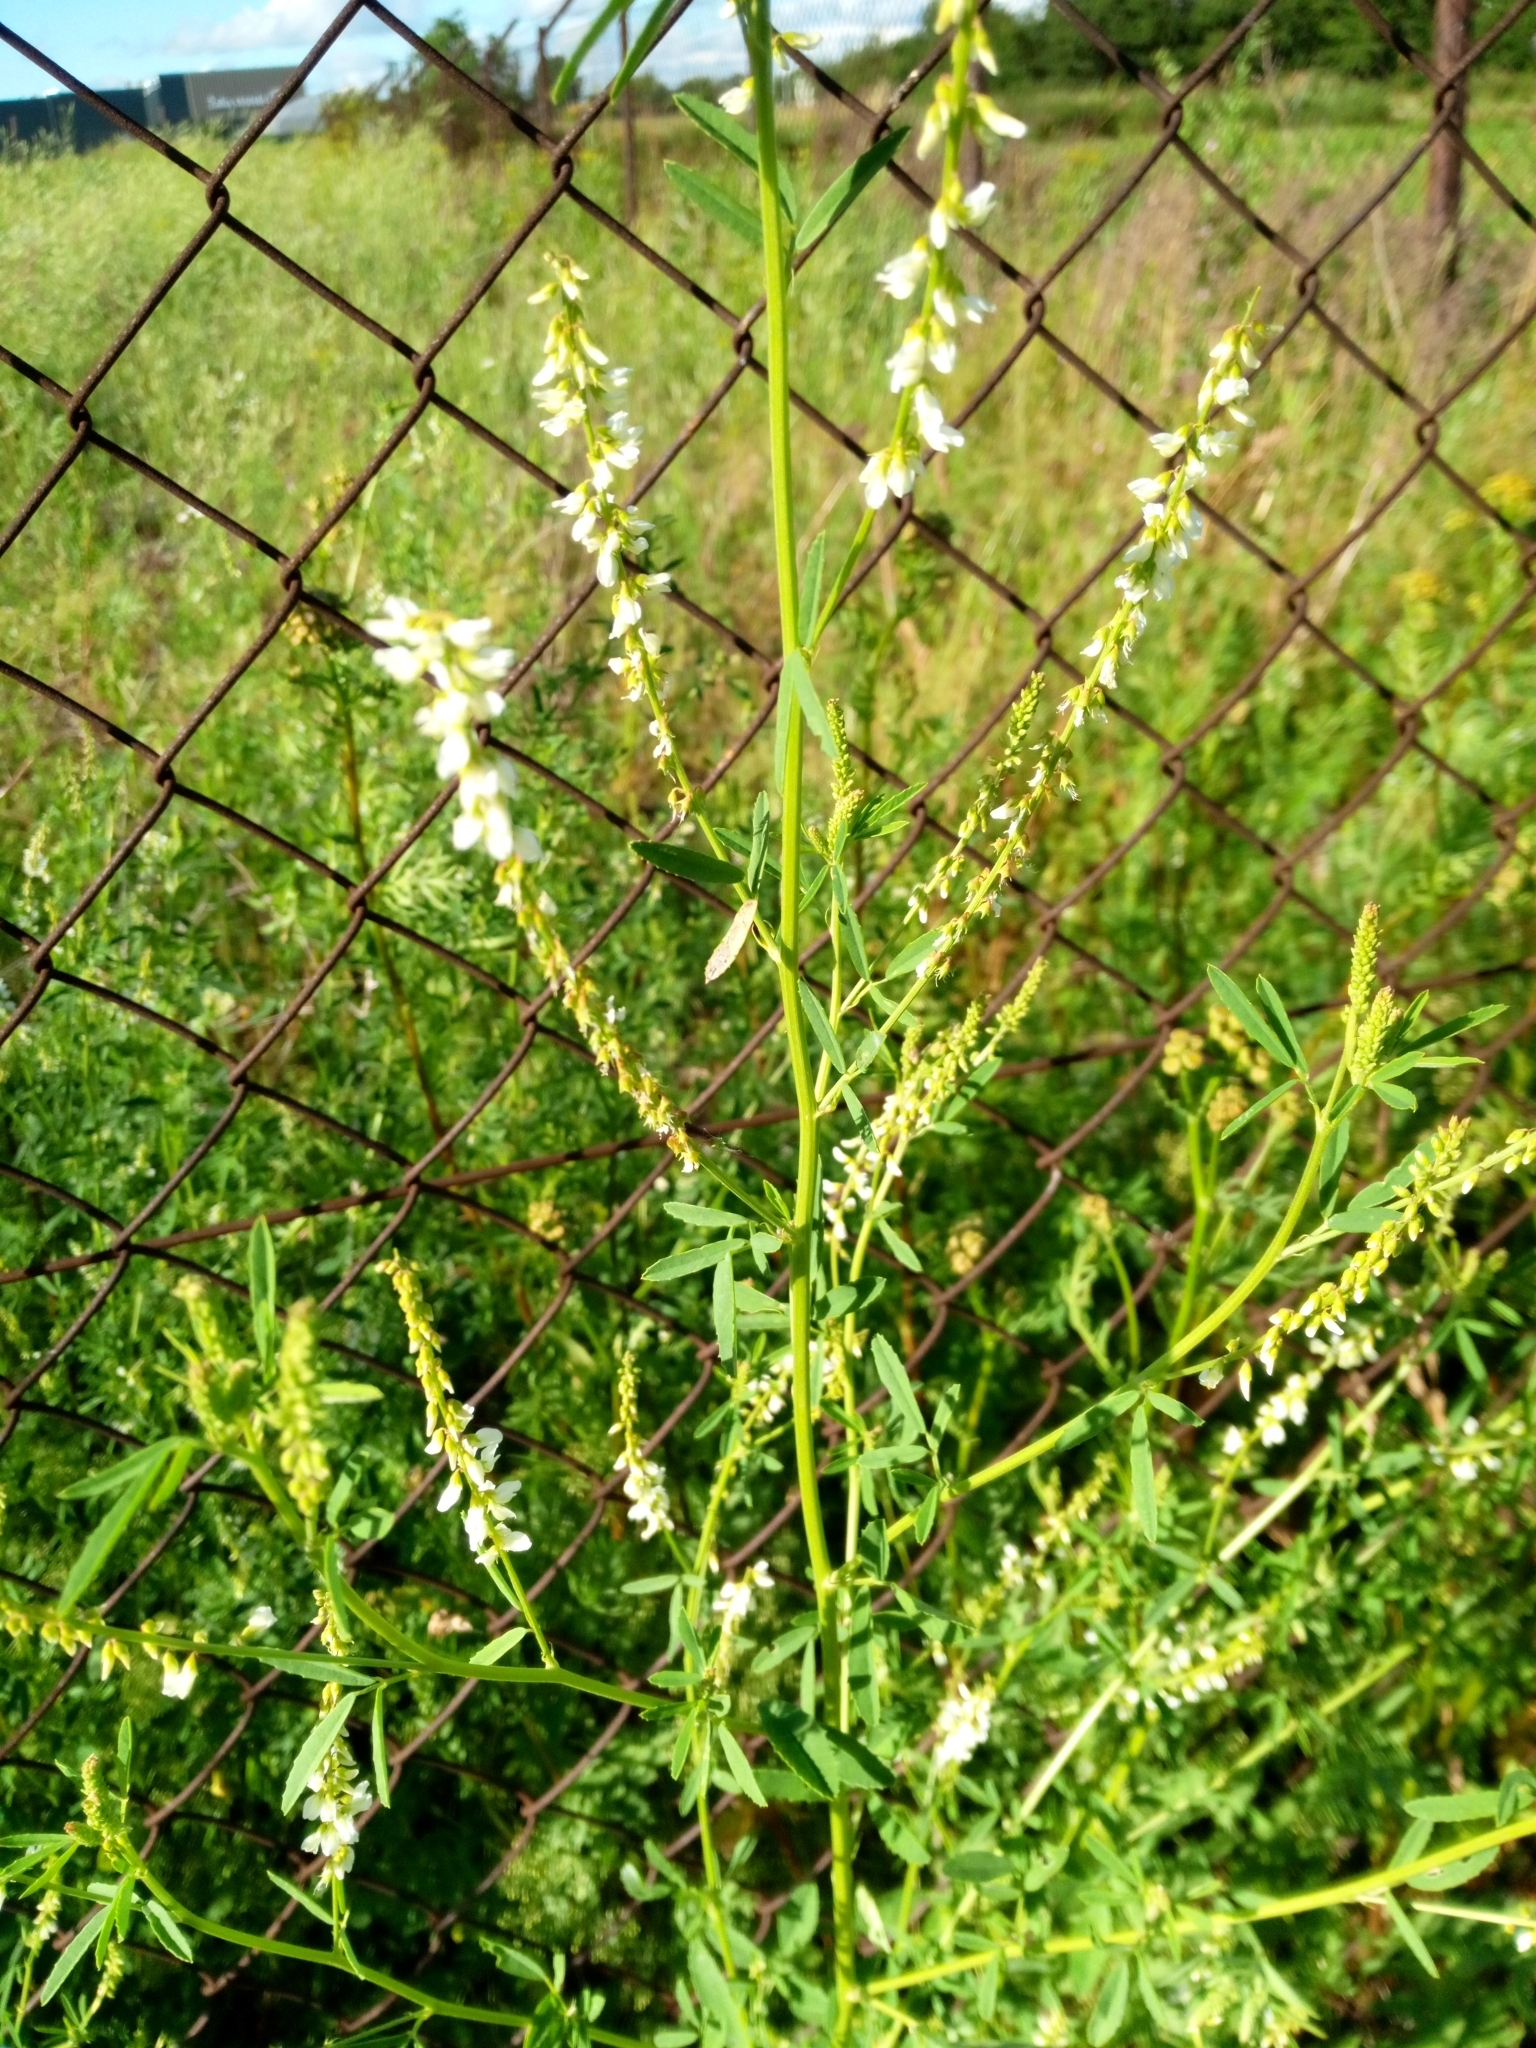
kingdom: Plantae
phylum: Tracheophyta
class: Magnoliopsida
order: Fabales
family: Fabaceae
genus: Melilotus
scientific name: Melilotus albus
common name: White melilot
